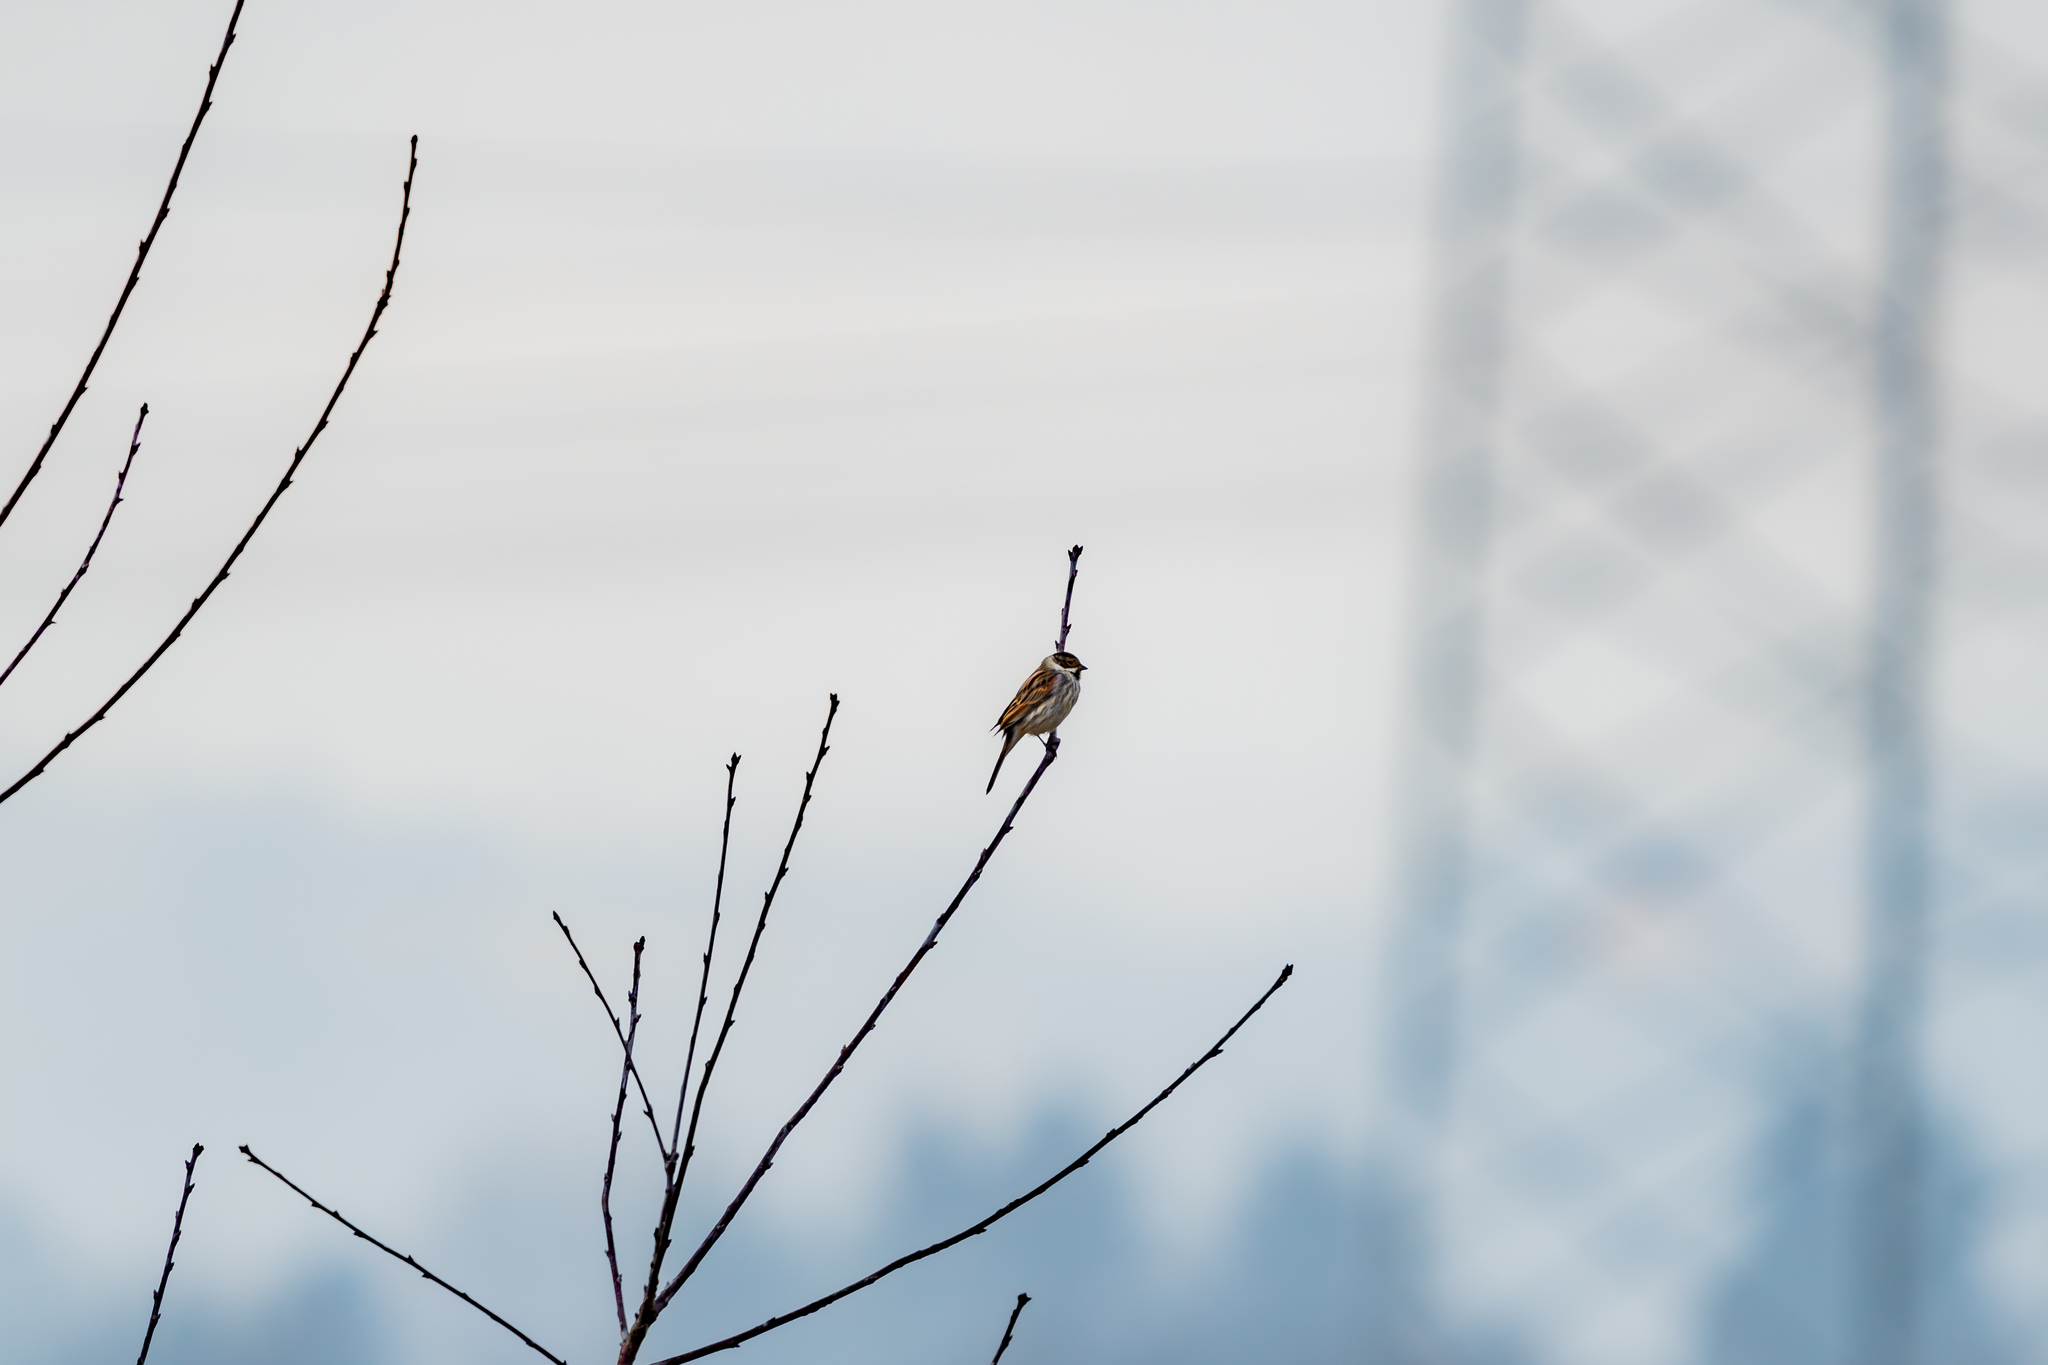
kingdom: Animalia
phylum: Chordata
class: Aves
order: Passeriformes
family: Emberizidae
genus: Emberiza
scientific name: Emberiza schoeniclus
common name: Reed bunting
